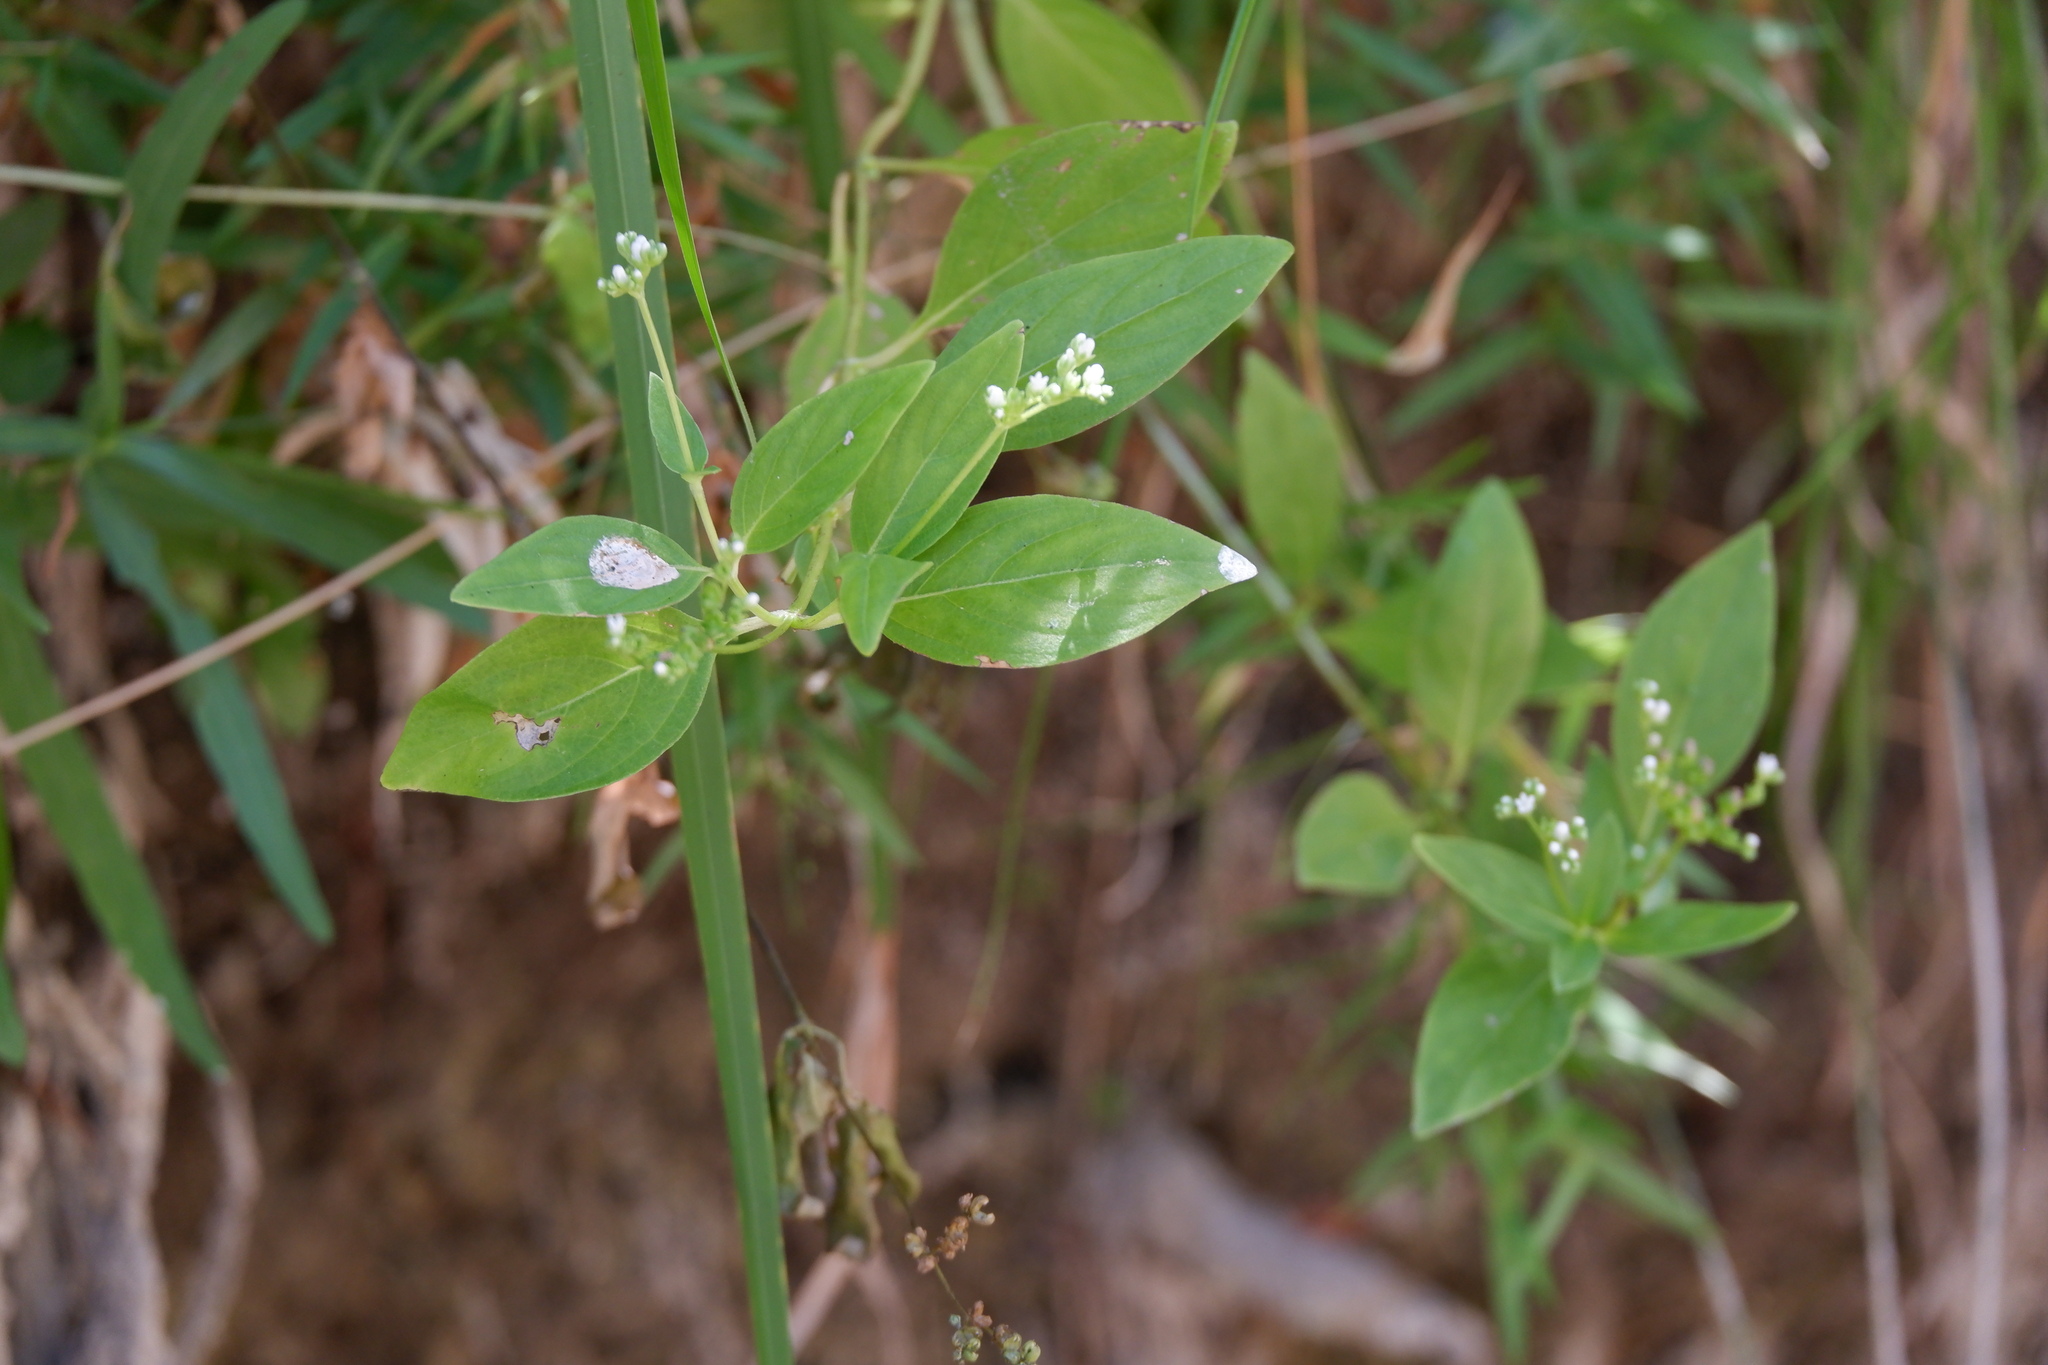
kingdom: Plantae
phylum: Tracheophyta
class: Magnoliopsida
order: Gentianales
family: Loganiaceae
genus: Mitreola
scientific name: Mitreola petiolata
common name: Lax hornpod
